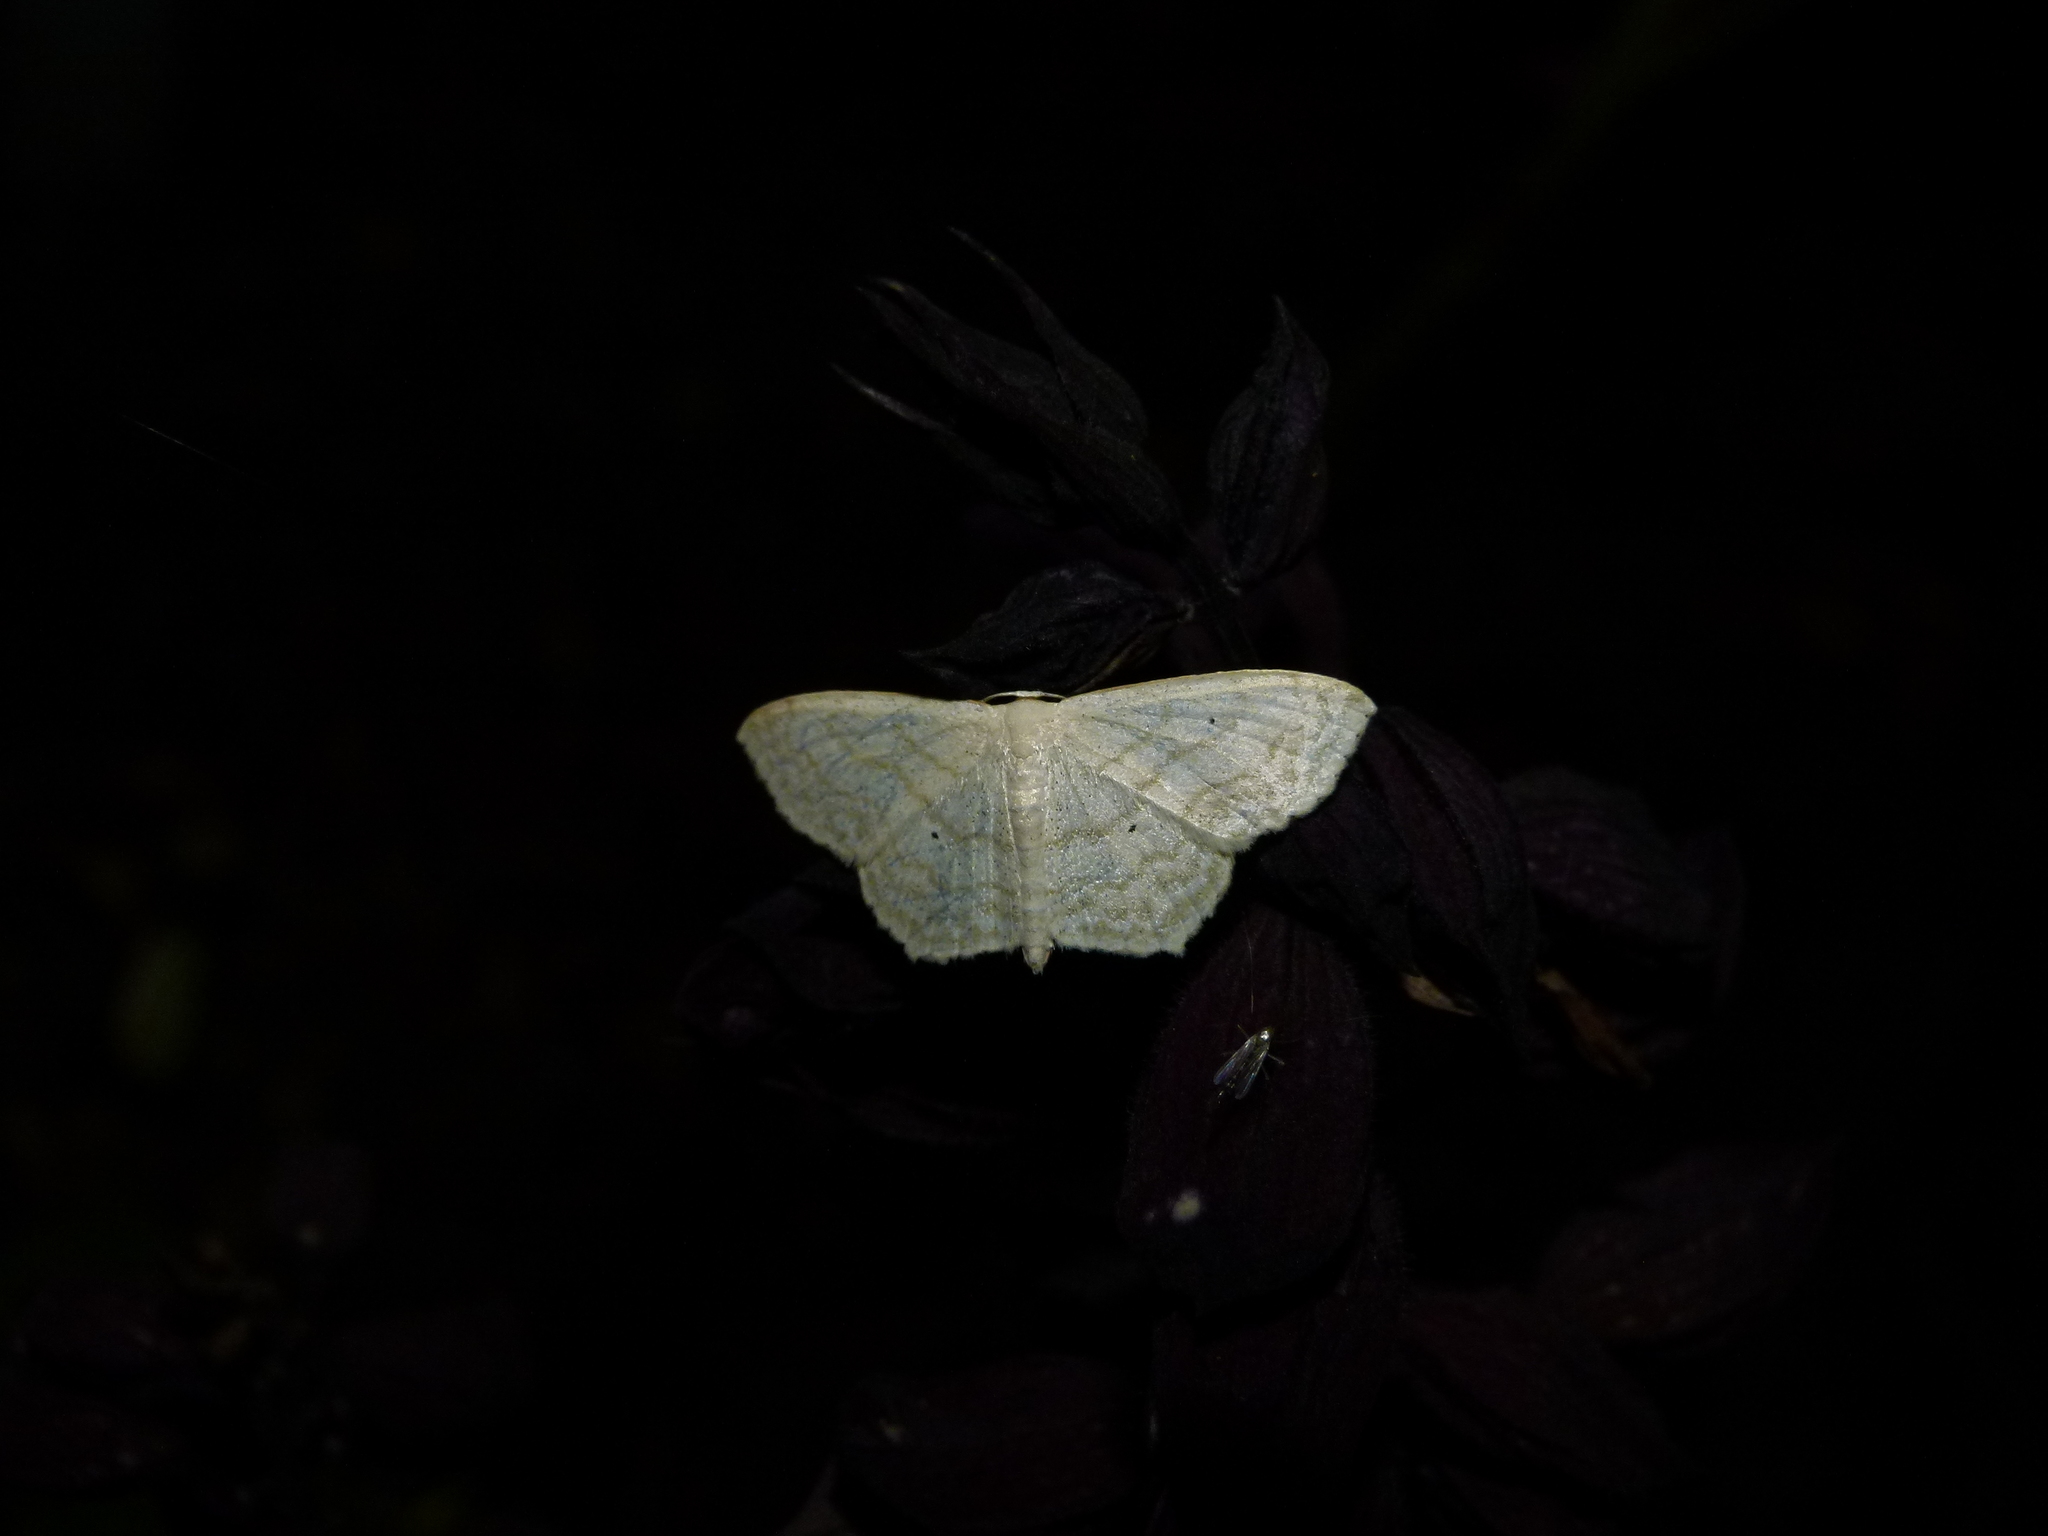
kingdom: Animalia
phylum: Arthropoda
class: Insecta
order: Lepidoptera
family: Geometridae
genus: Scopula
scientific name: Scopula limboundata
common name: Large lace border
